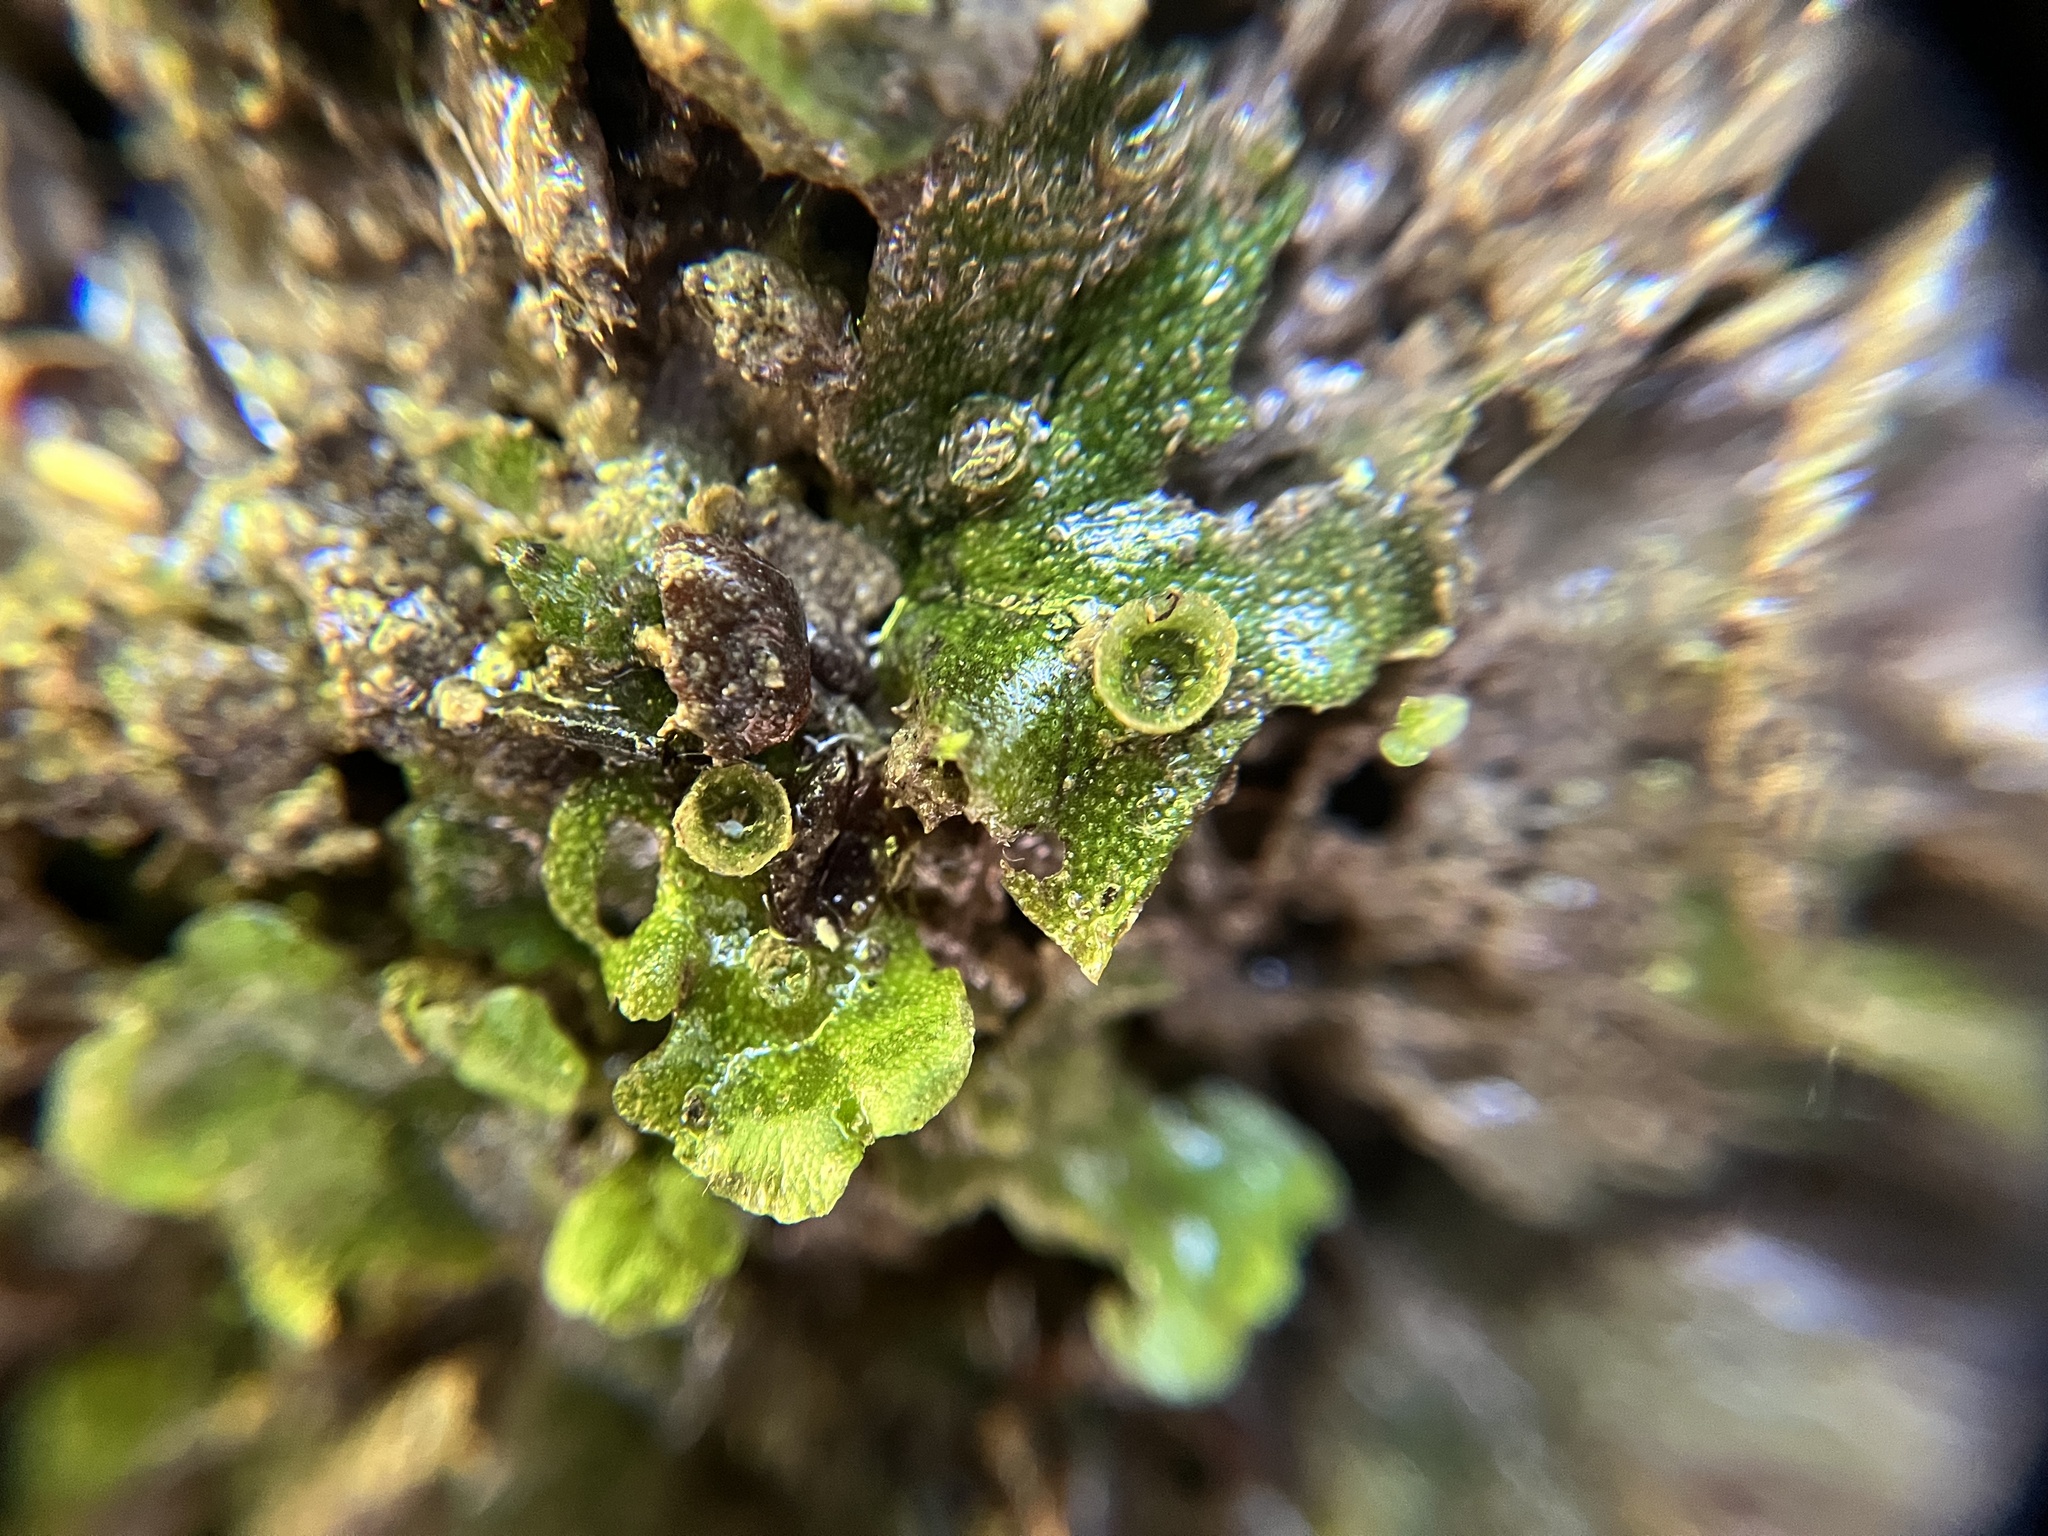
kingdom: Plantae
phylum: Marchantiophyta
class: Marchantiopsida
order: Marchantiales
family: Marchantiaceae
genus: Marchantia
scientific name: Marchantia polymorpha
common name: Common liverwort
